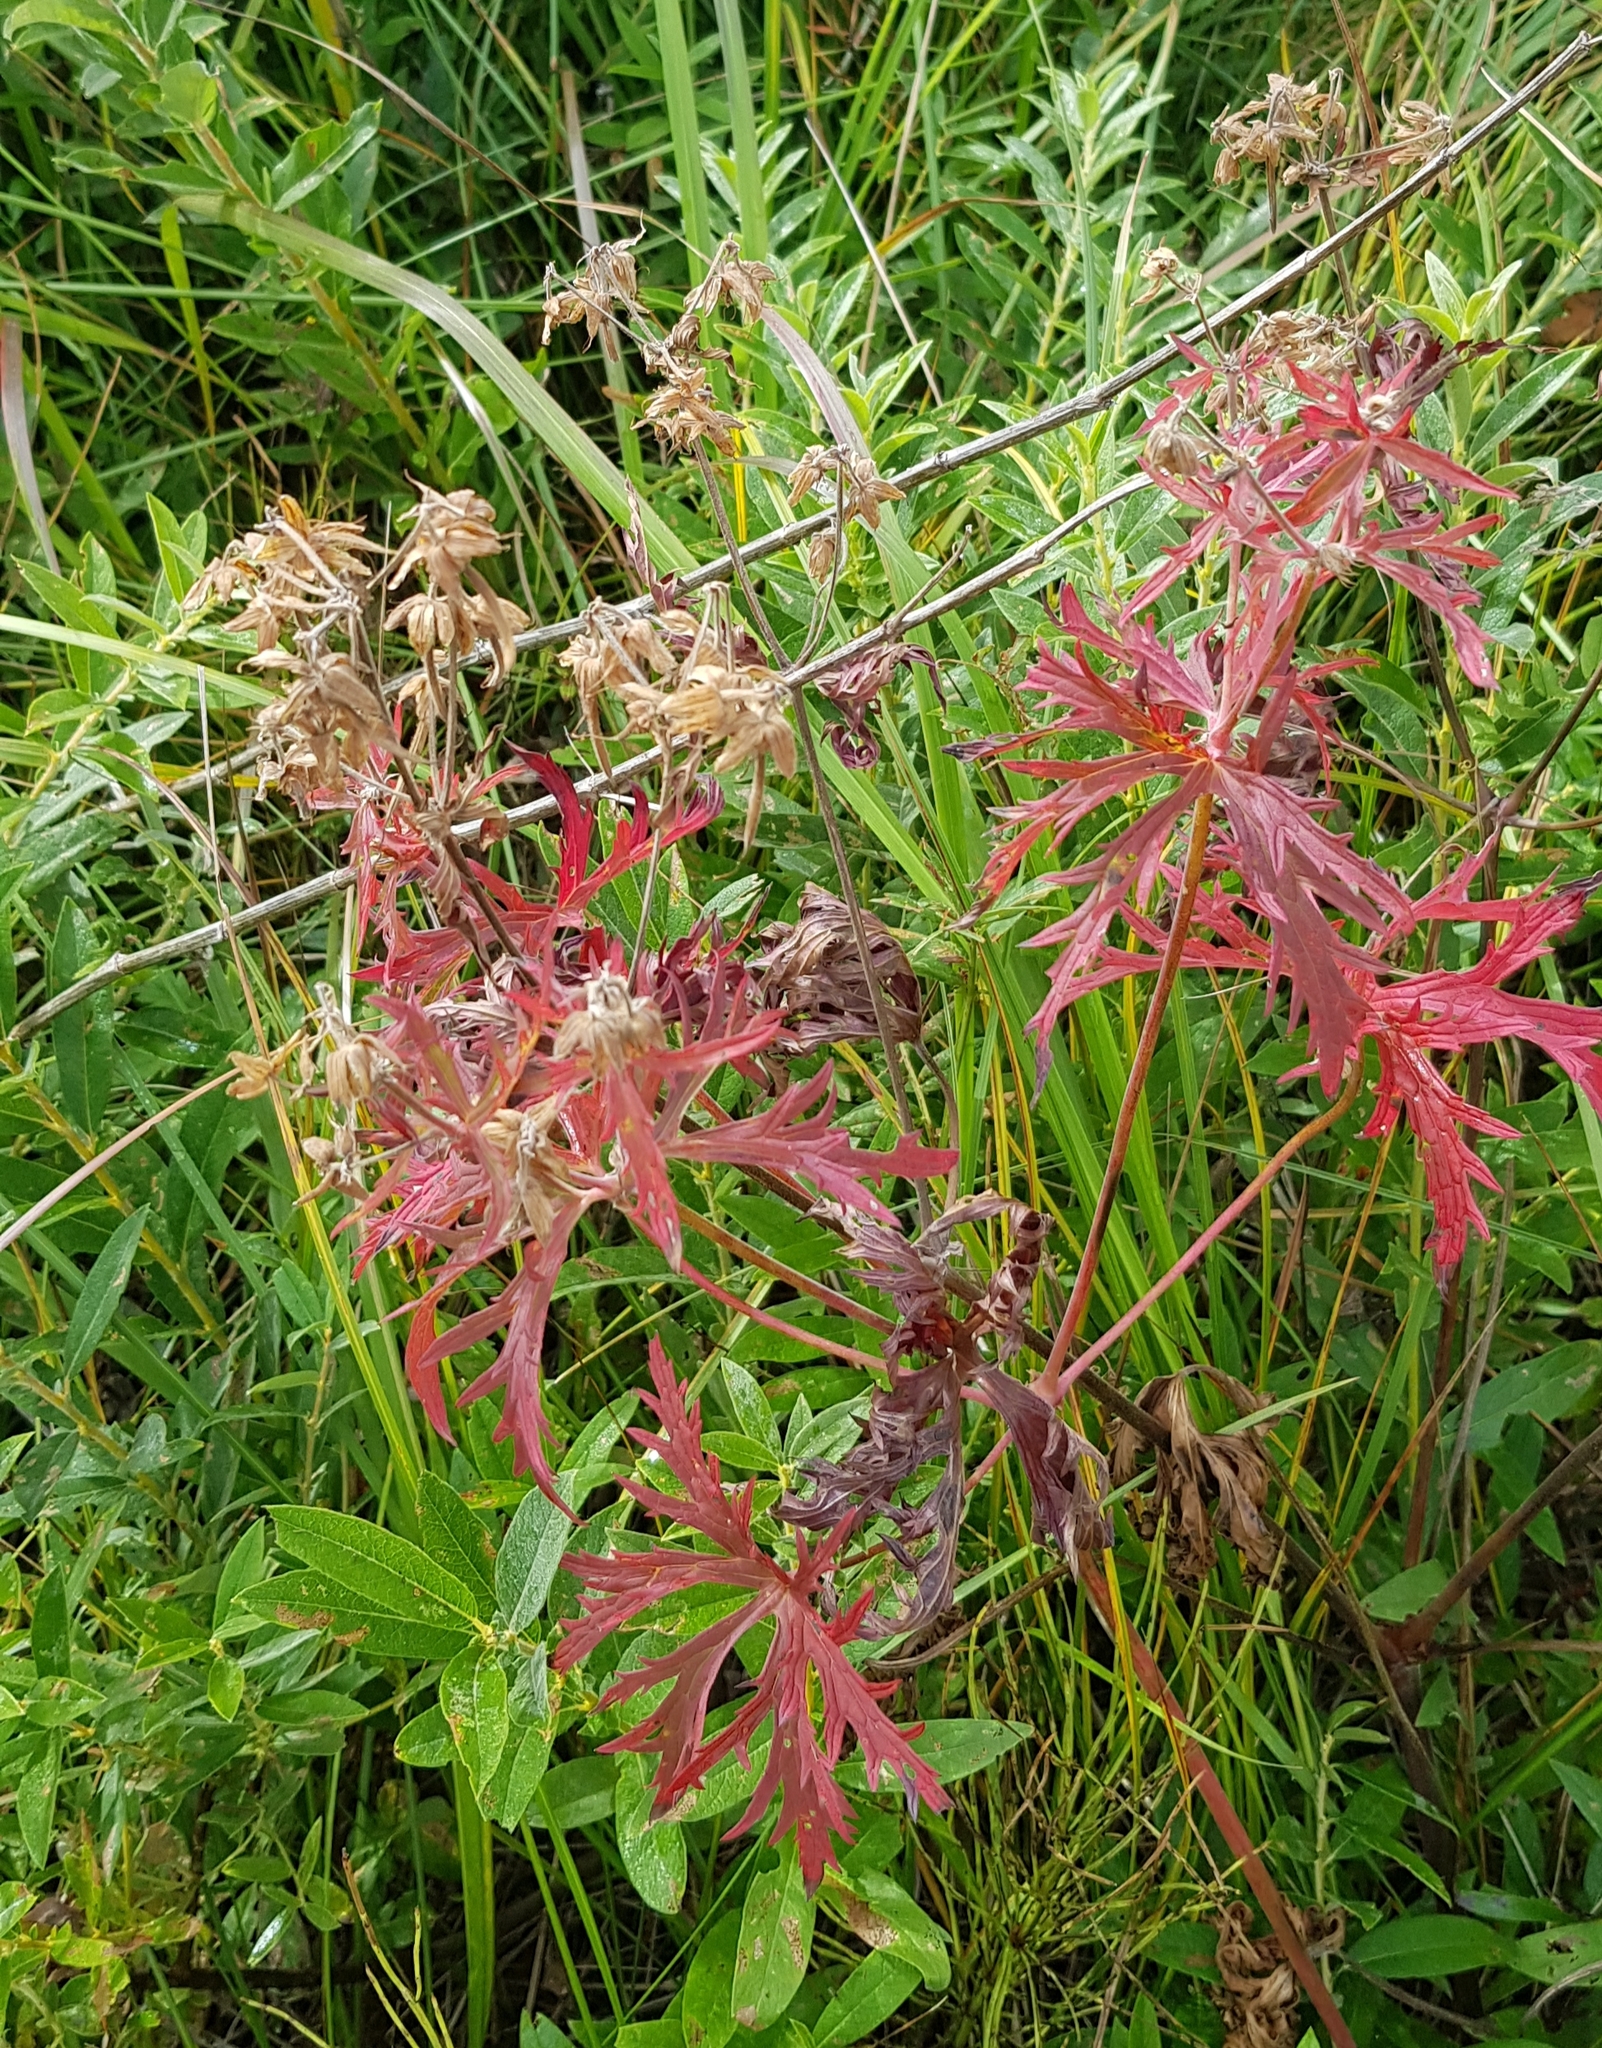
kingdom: Plantae
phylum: Tracheophyta
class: Magnoliopsida
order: Geraniales
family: Geraniaceae
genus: Geranium
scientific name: Geranium pratense
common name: Meadow crane's-bill
